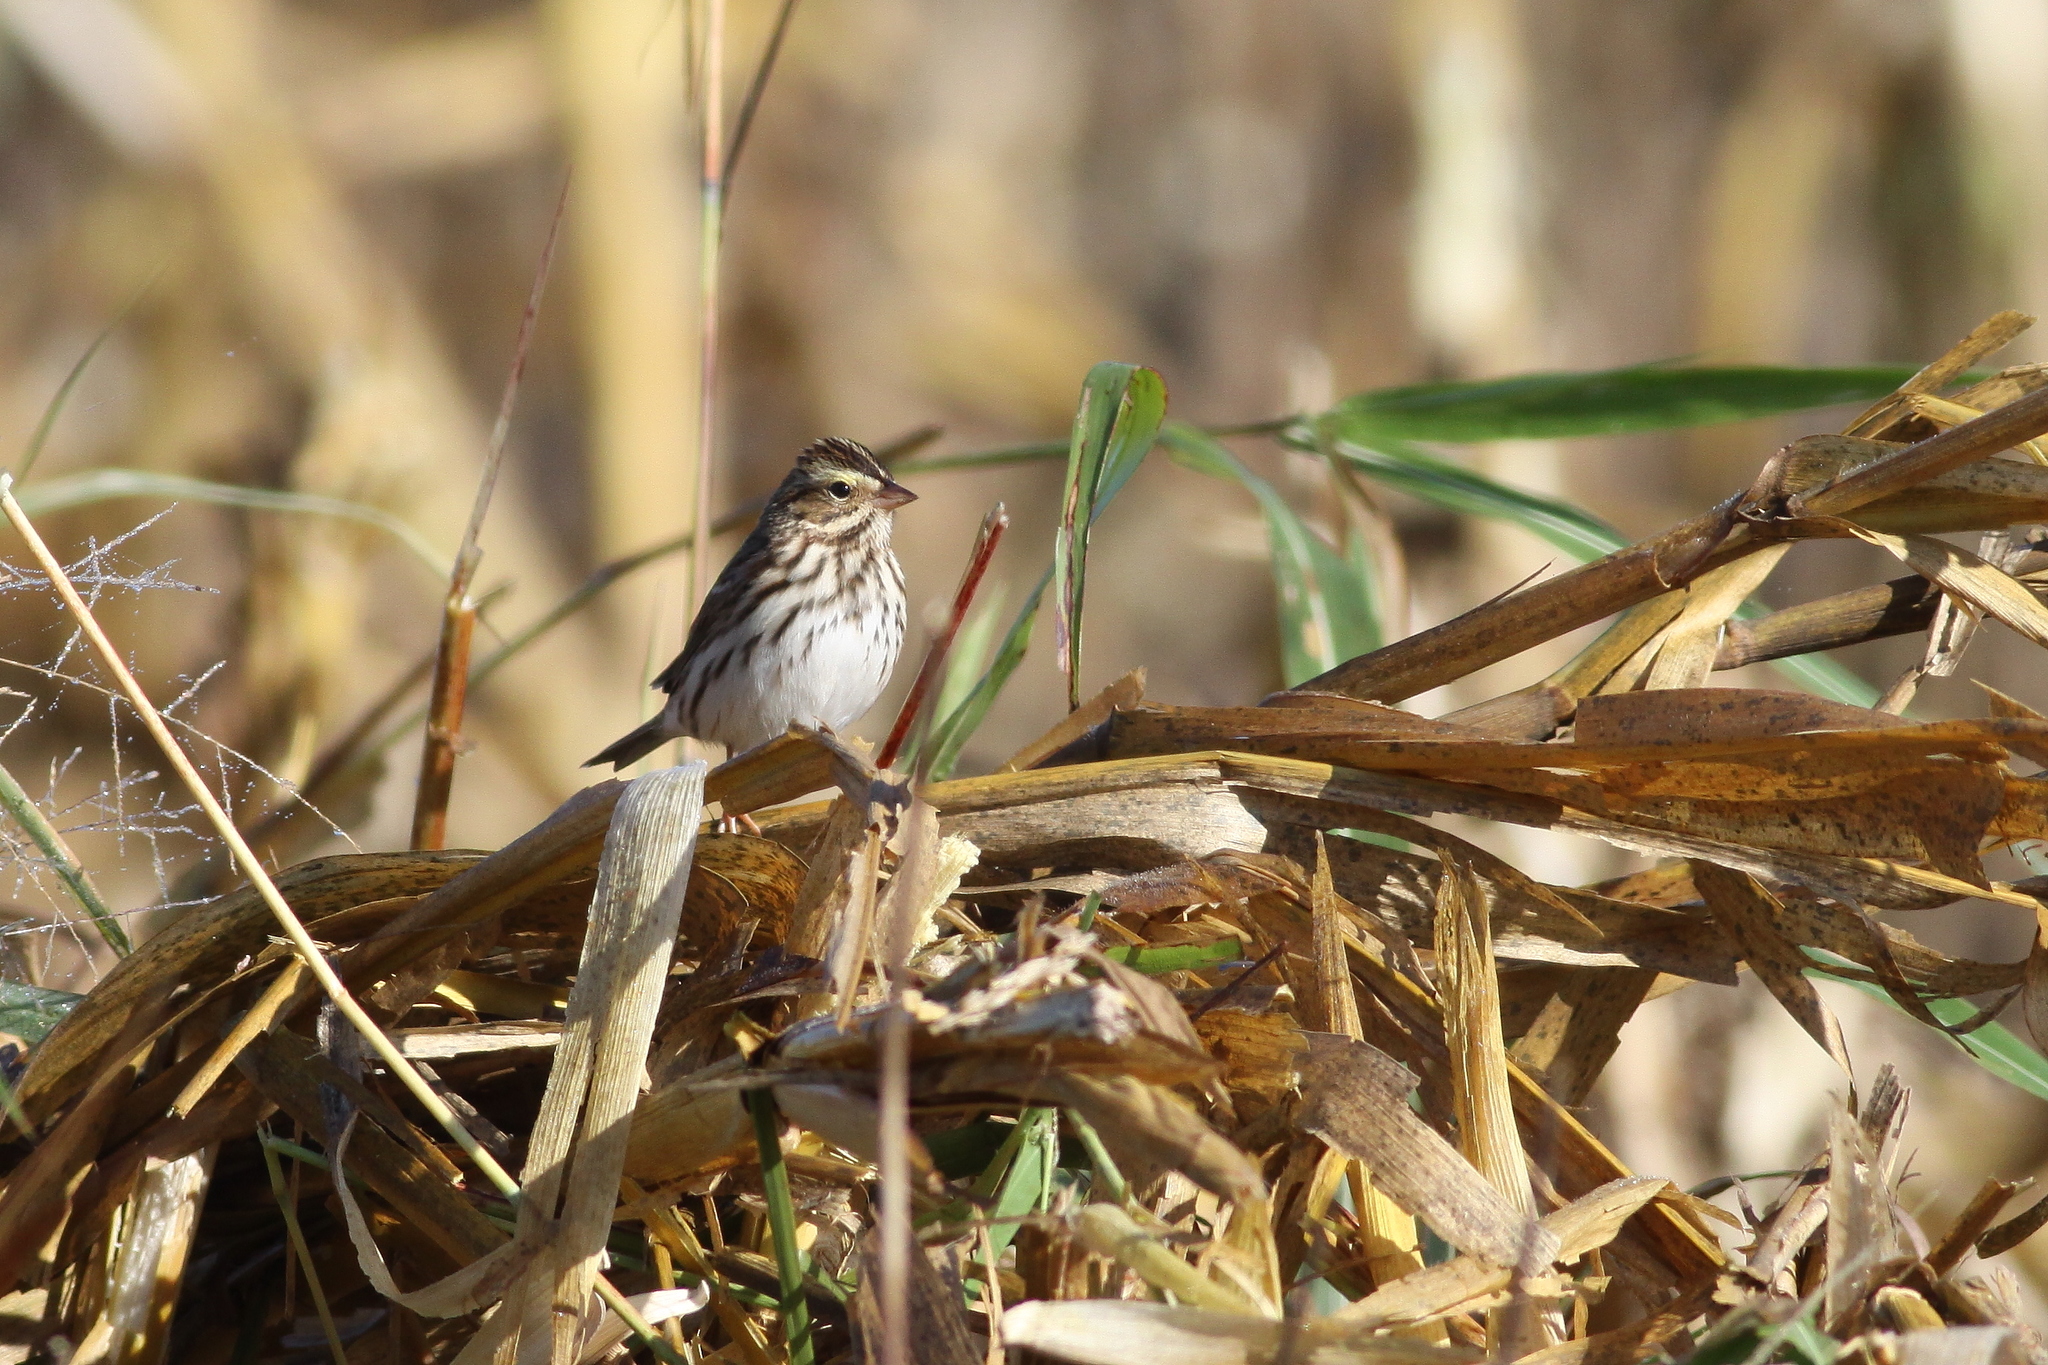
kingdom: Animalia
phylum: Chordata
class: Aves
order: Passeriformes
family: Passerellidae
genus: Passerculus
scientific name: Passerculus sandwichensis
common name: Savannah sparrow
